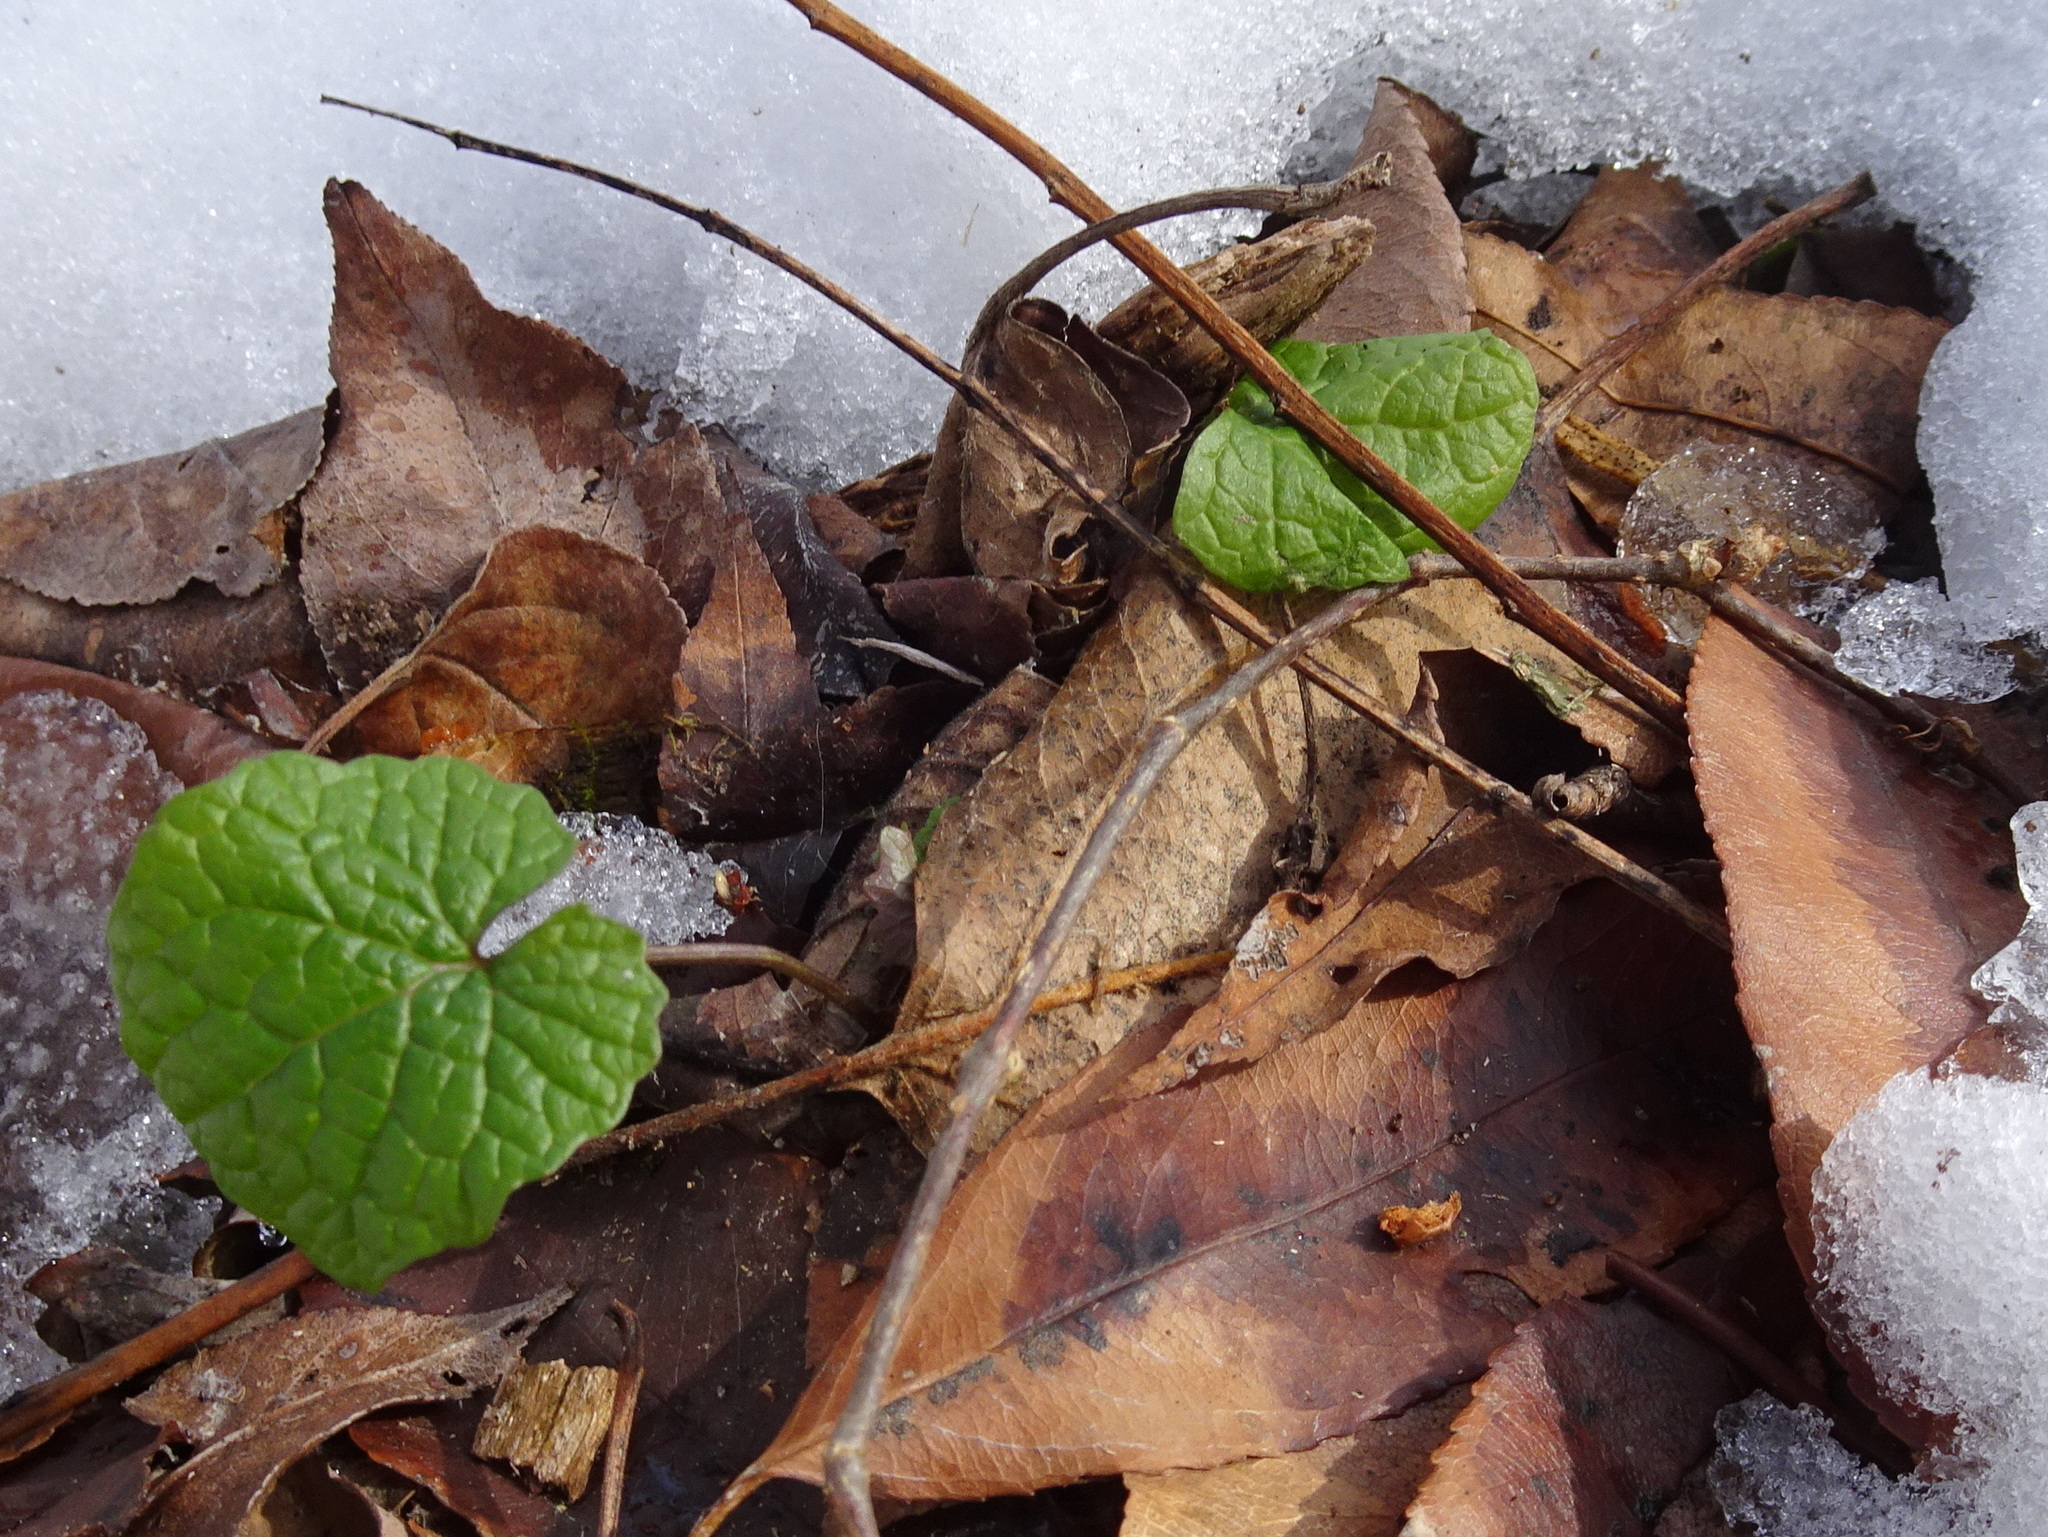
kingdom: Plantae
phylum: Tracheophyta
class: Magnoliopsida
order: Brassicales
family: Brassicaceae
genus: Alliaria
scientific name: Alliaria petiolata
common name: Garlic mustard
